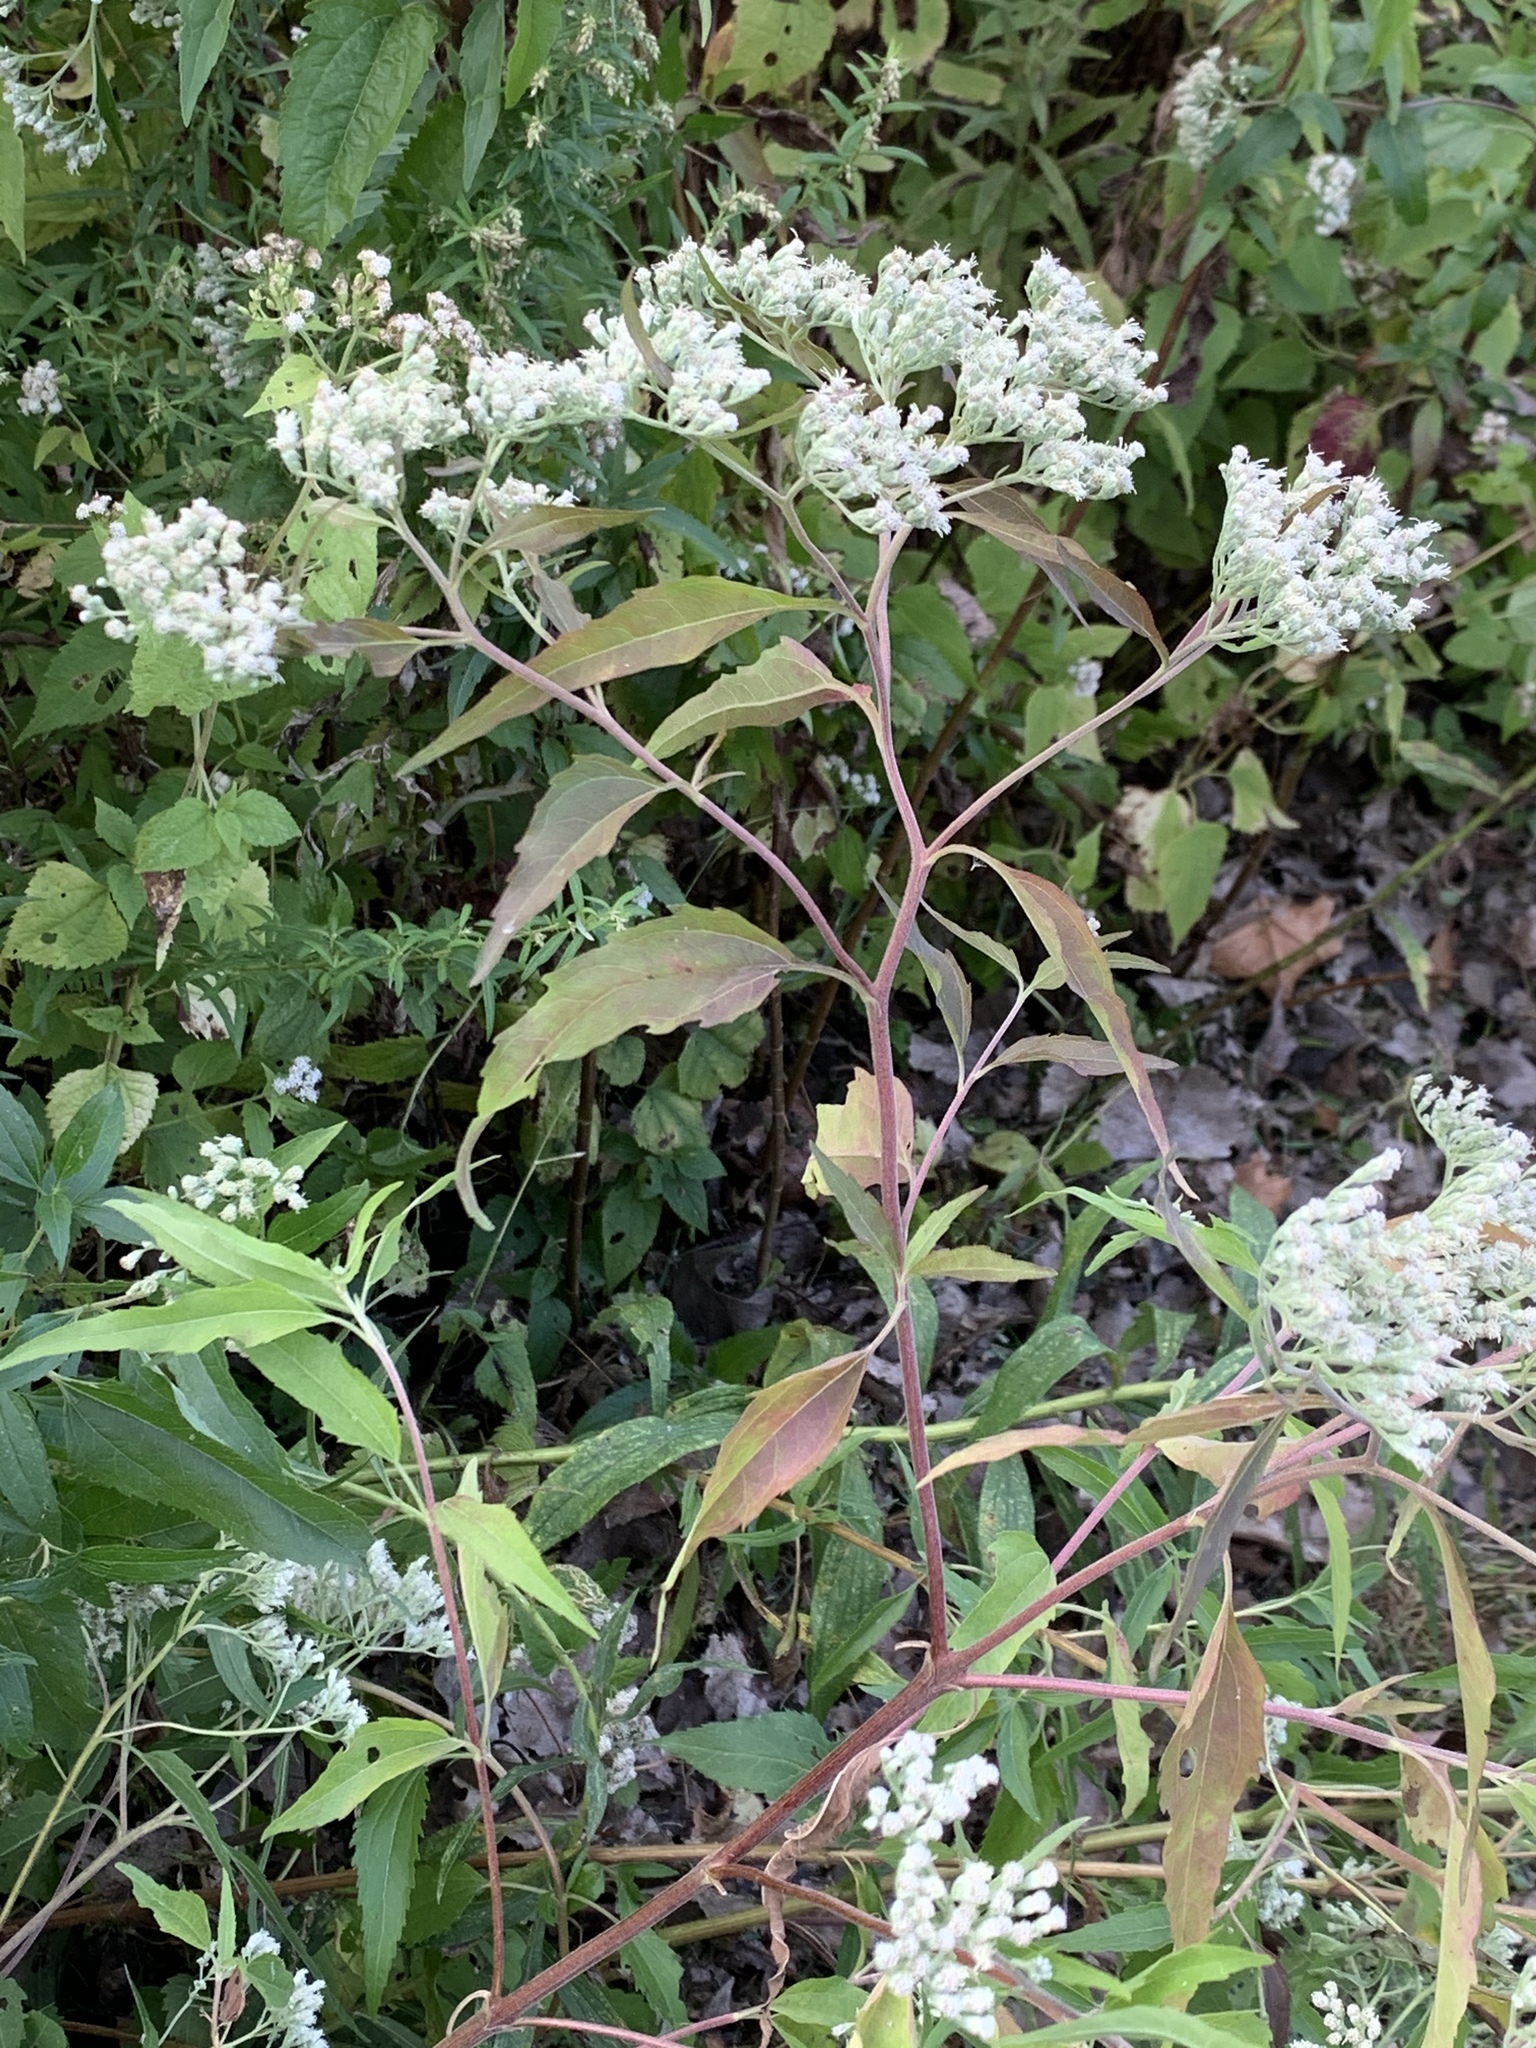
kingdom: Plantae
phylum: Tracheophyta
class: Magnoliopsida
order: Asterales
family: Asteraceae
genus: Eupatorium
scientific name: Eupatorium serotinum
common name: Late boneset
